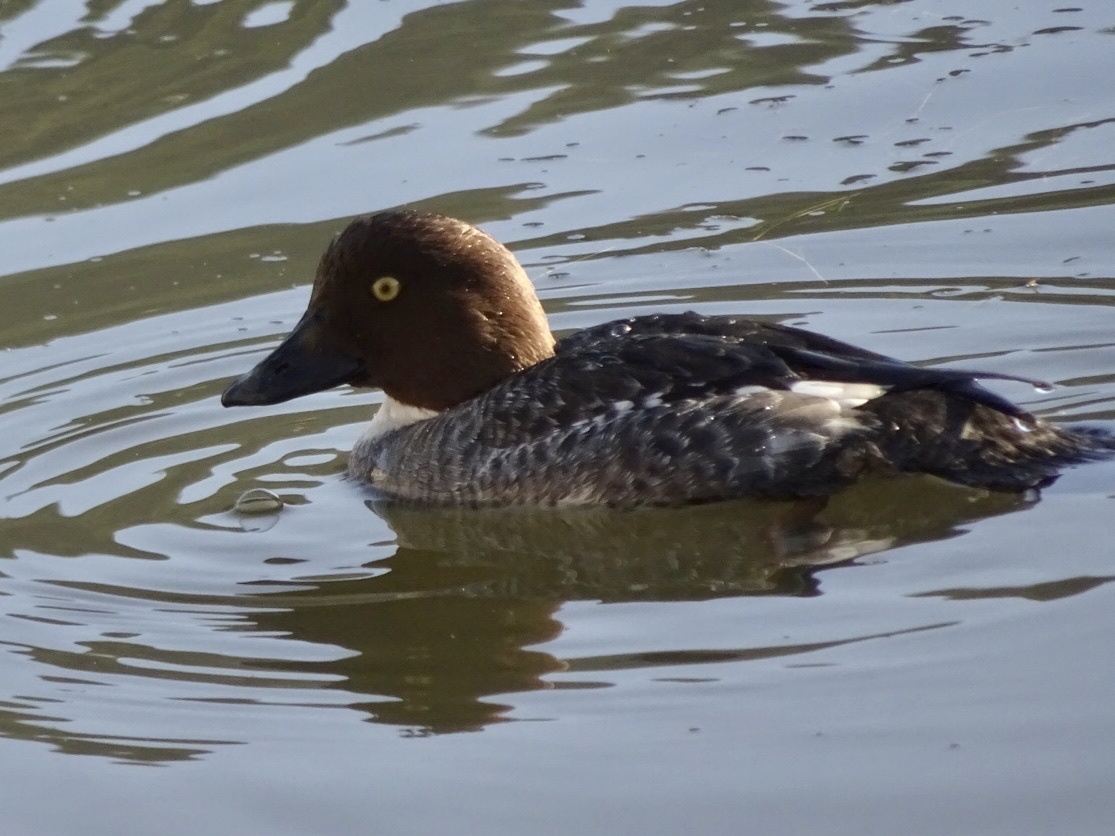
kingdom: Animalia
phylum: Chordata
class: Aves
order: Anseriformes
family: Anatidae
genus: Bucephala
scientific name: Bucephala clangula
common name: Common goldeneye
